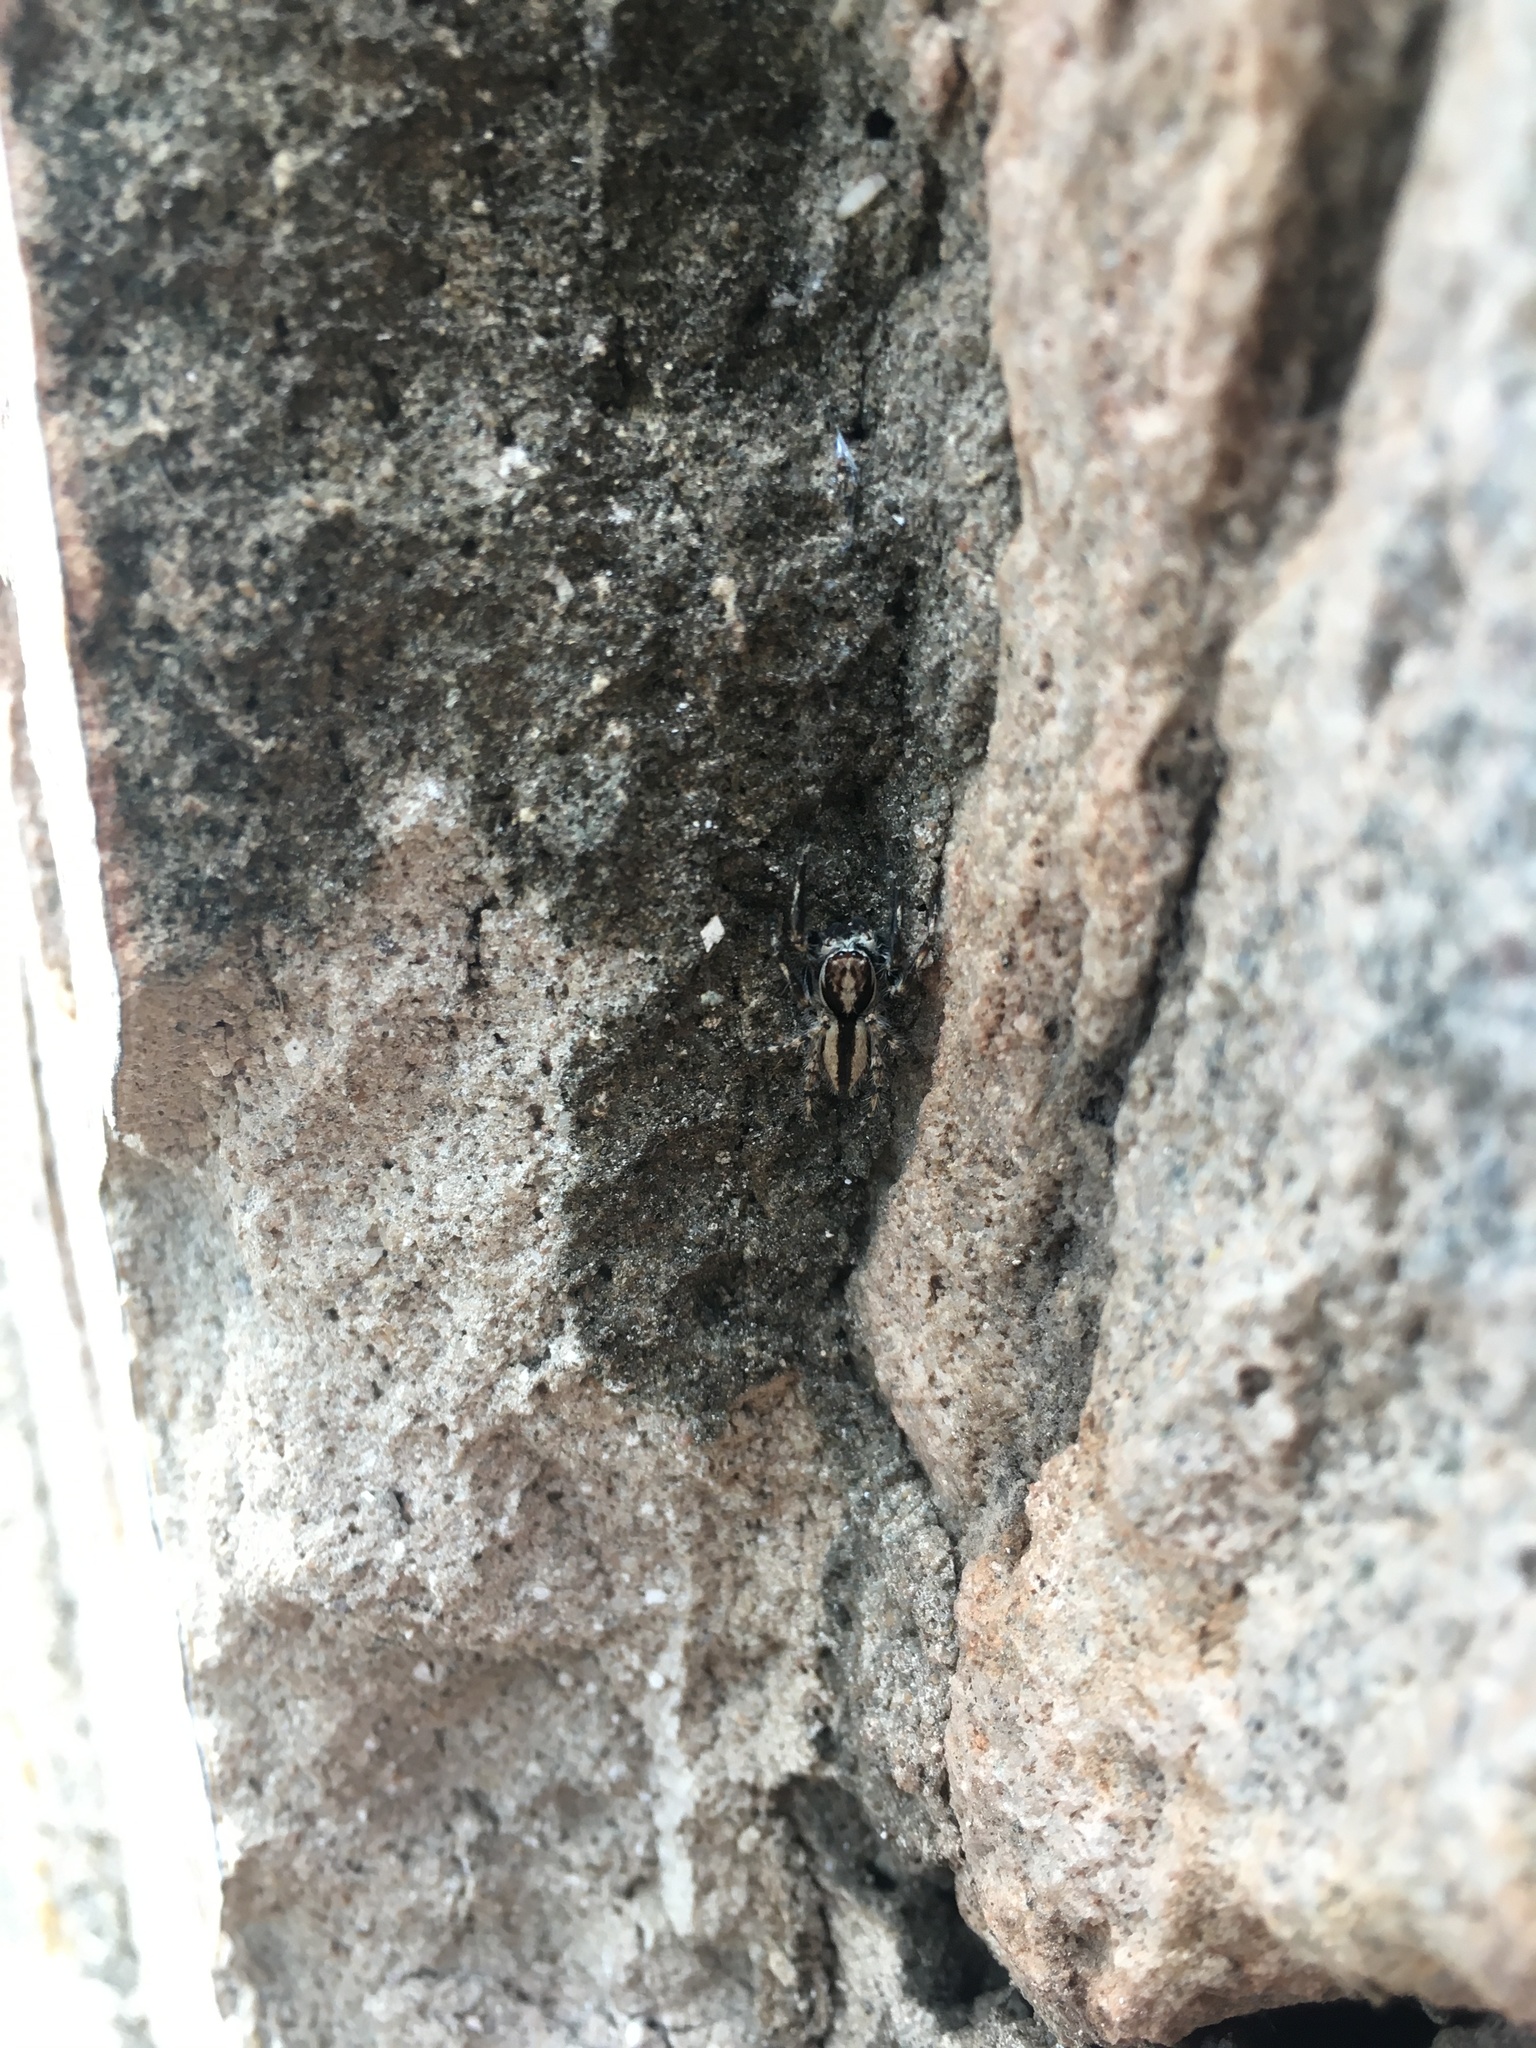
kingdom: Animalia
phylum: Arthropoda
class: Arachnida
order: Araneae
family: Salticidae
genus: Menemerus
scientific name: Menemerus bivittatus
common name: Gray wall jumper
